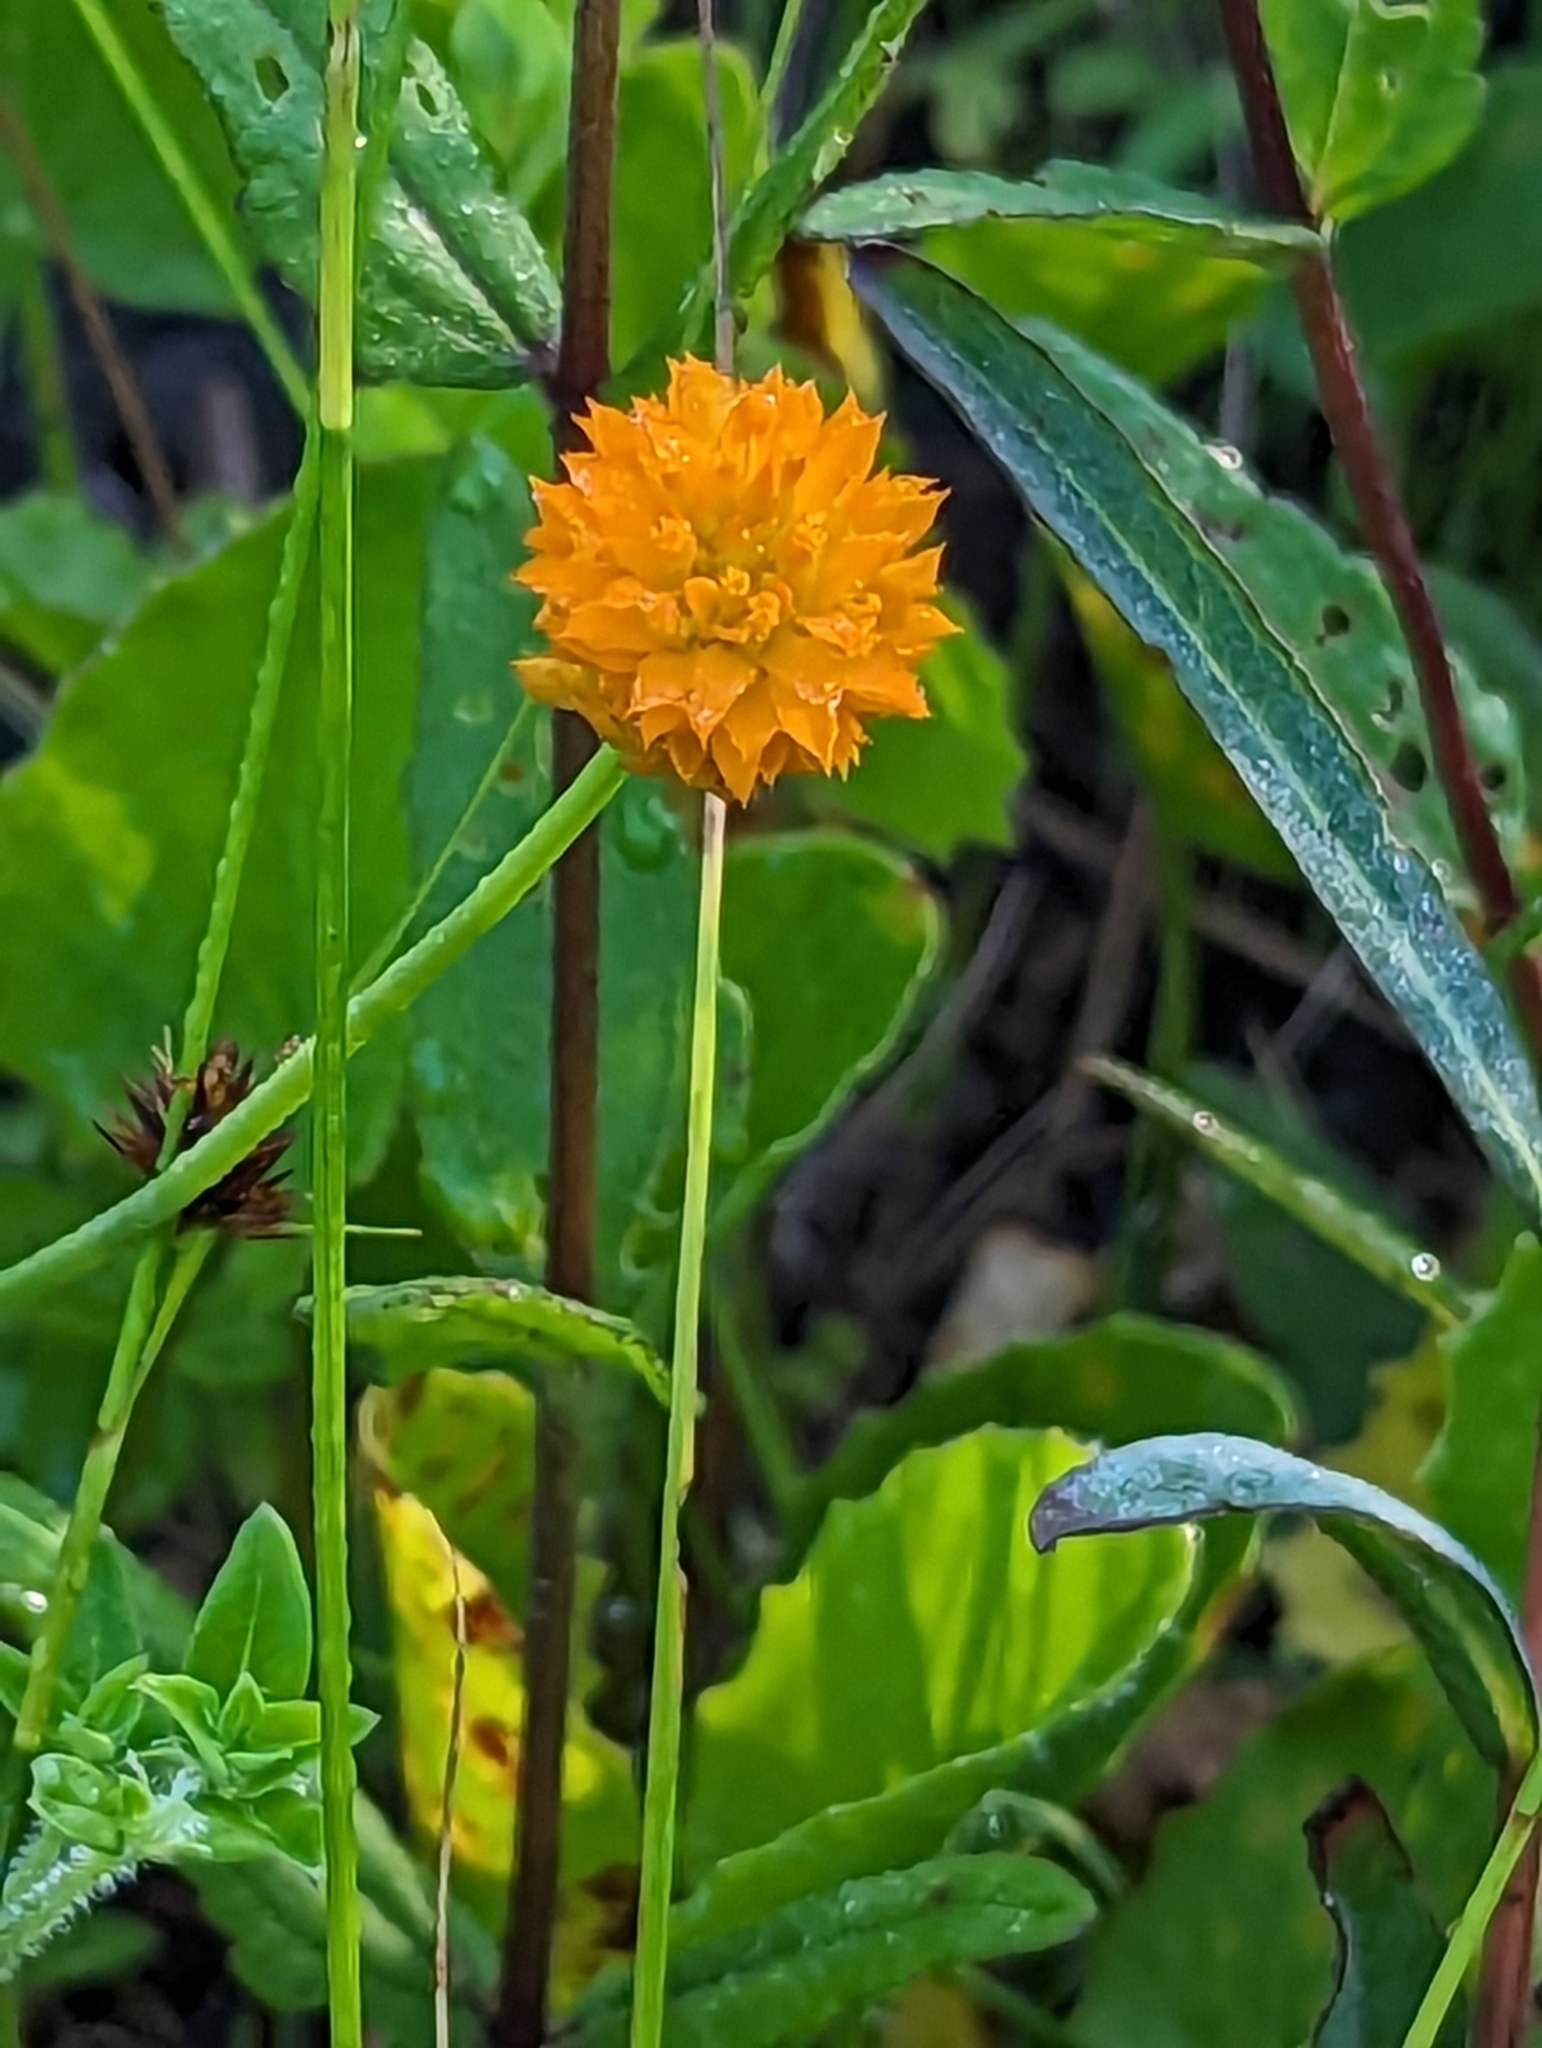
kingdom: Plantae
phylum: Tracheophyta
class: Magnoliopsida
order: Fabales
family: Polygalaceae
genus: Polygala
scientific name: Polygala lutea
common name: Orange milkwort
